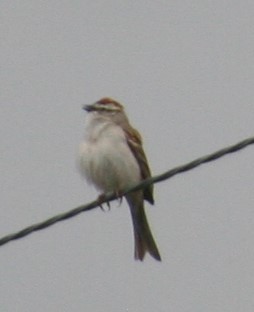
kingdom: Animalia
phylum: Chordata
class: Aves
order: Passeriformes
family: Passerellidae
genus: Spizella
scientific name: Spizella passerina
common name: Chipping sparrow
